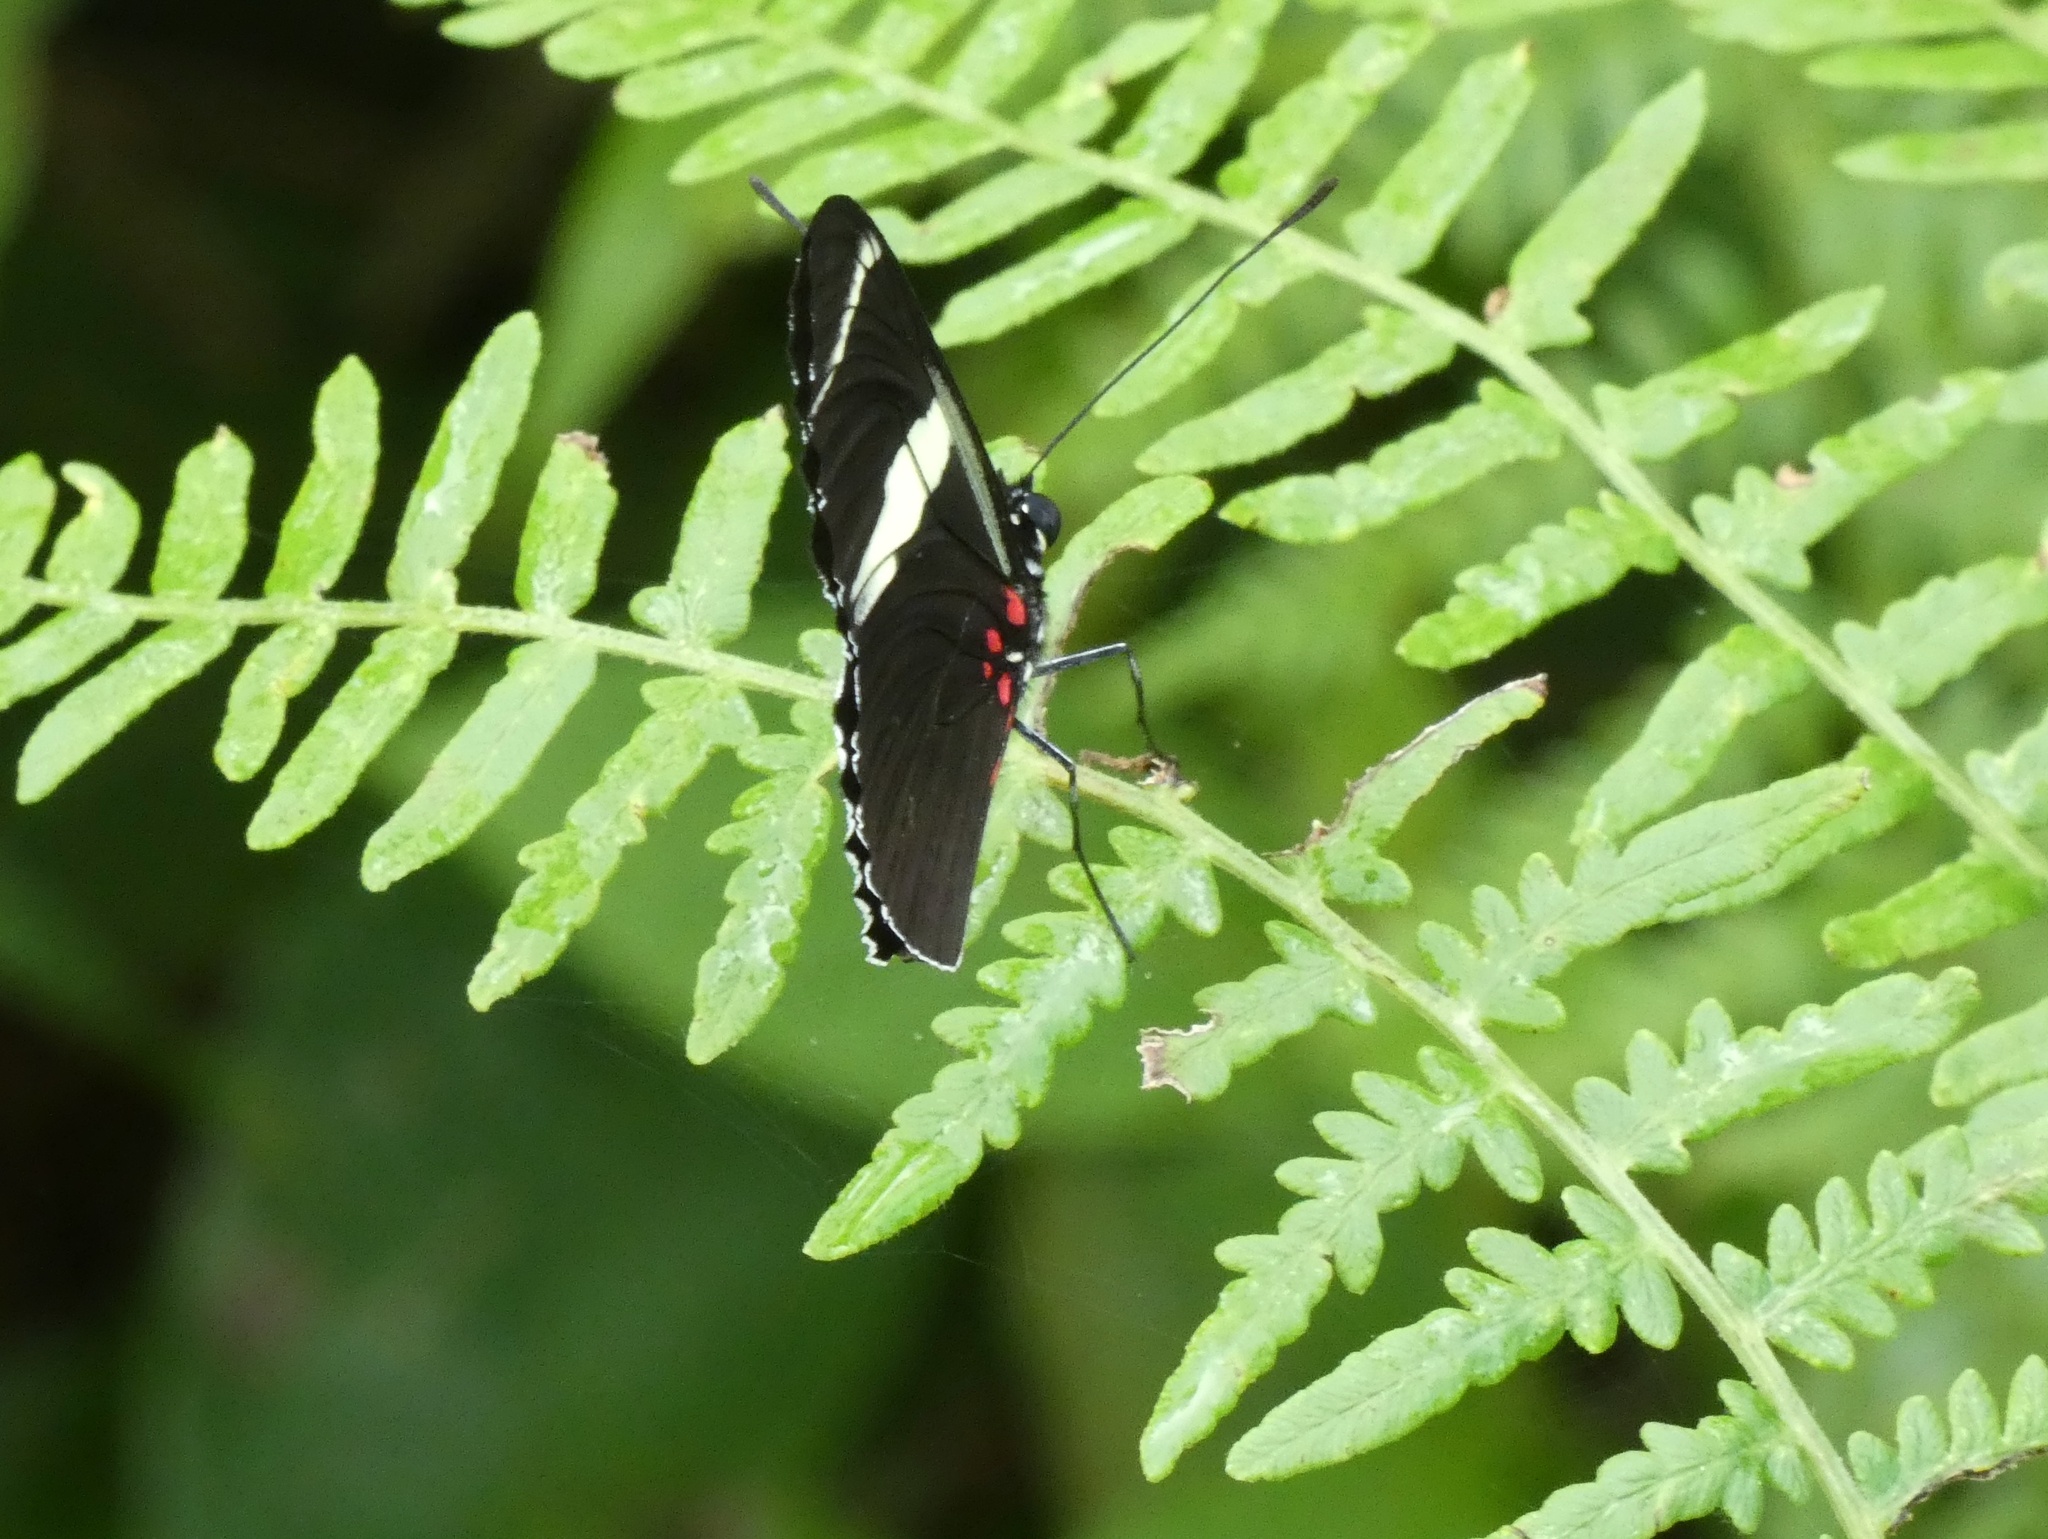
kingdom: Animalia
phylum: Arthropoda
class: Insecta
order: Lepidoptera
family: Nymphalidae
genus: Heliconius
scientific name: Heliconius sara
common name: Sara longwing
